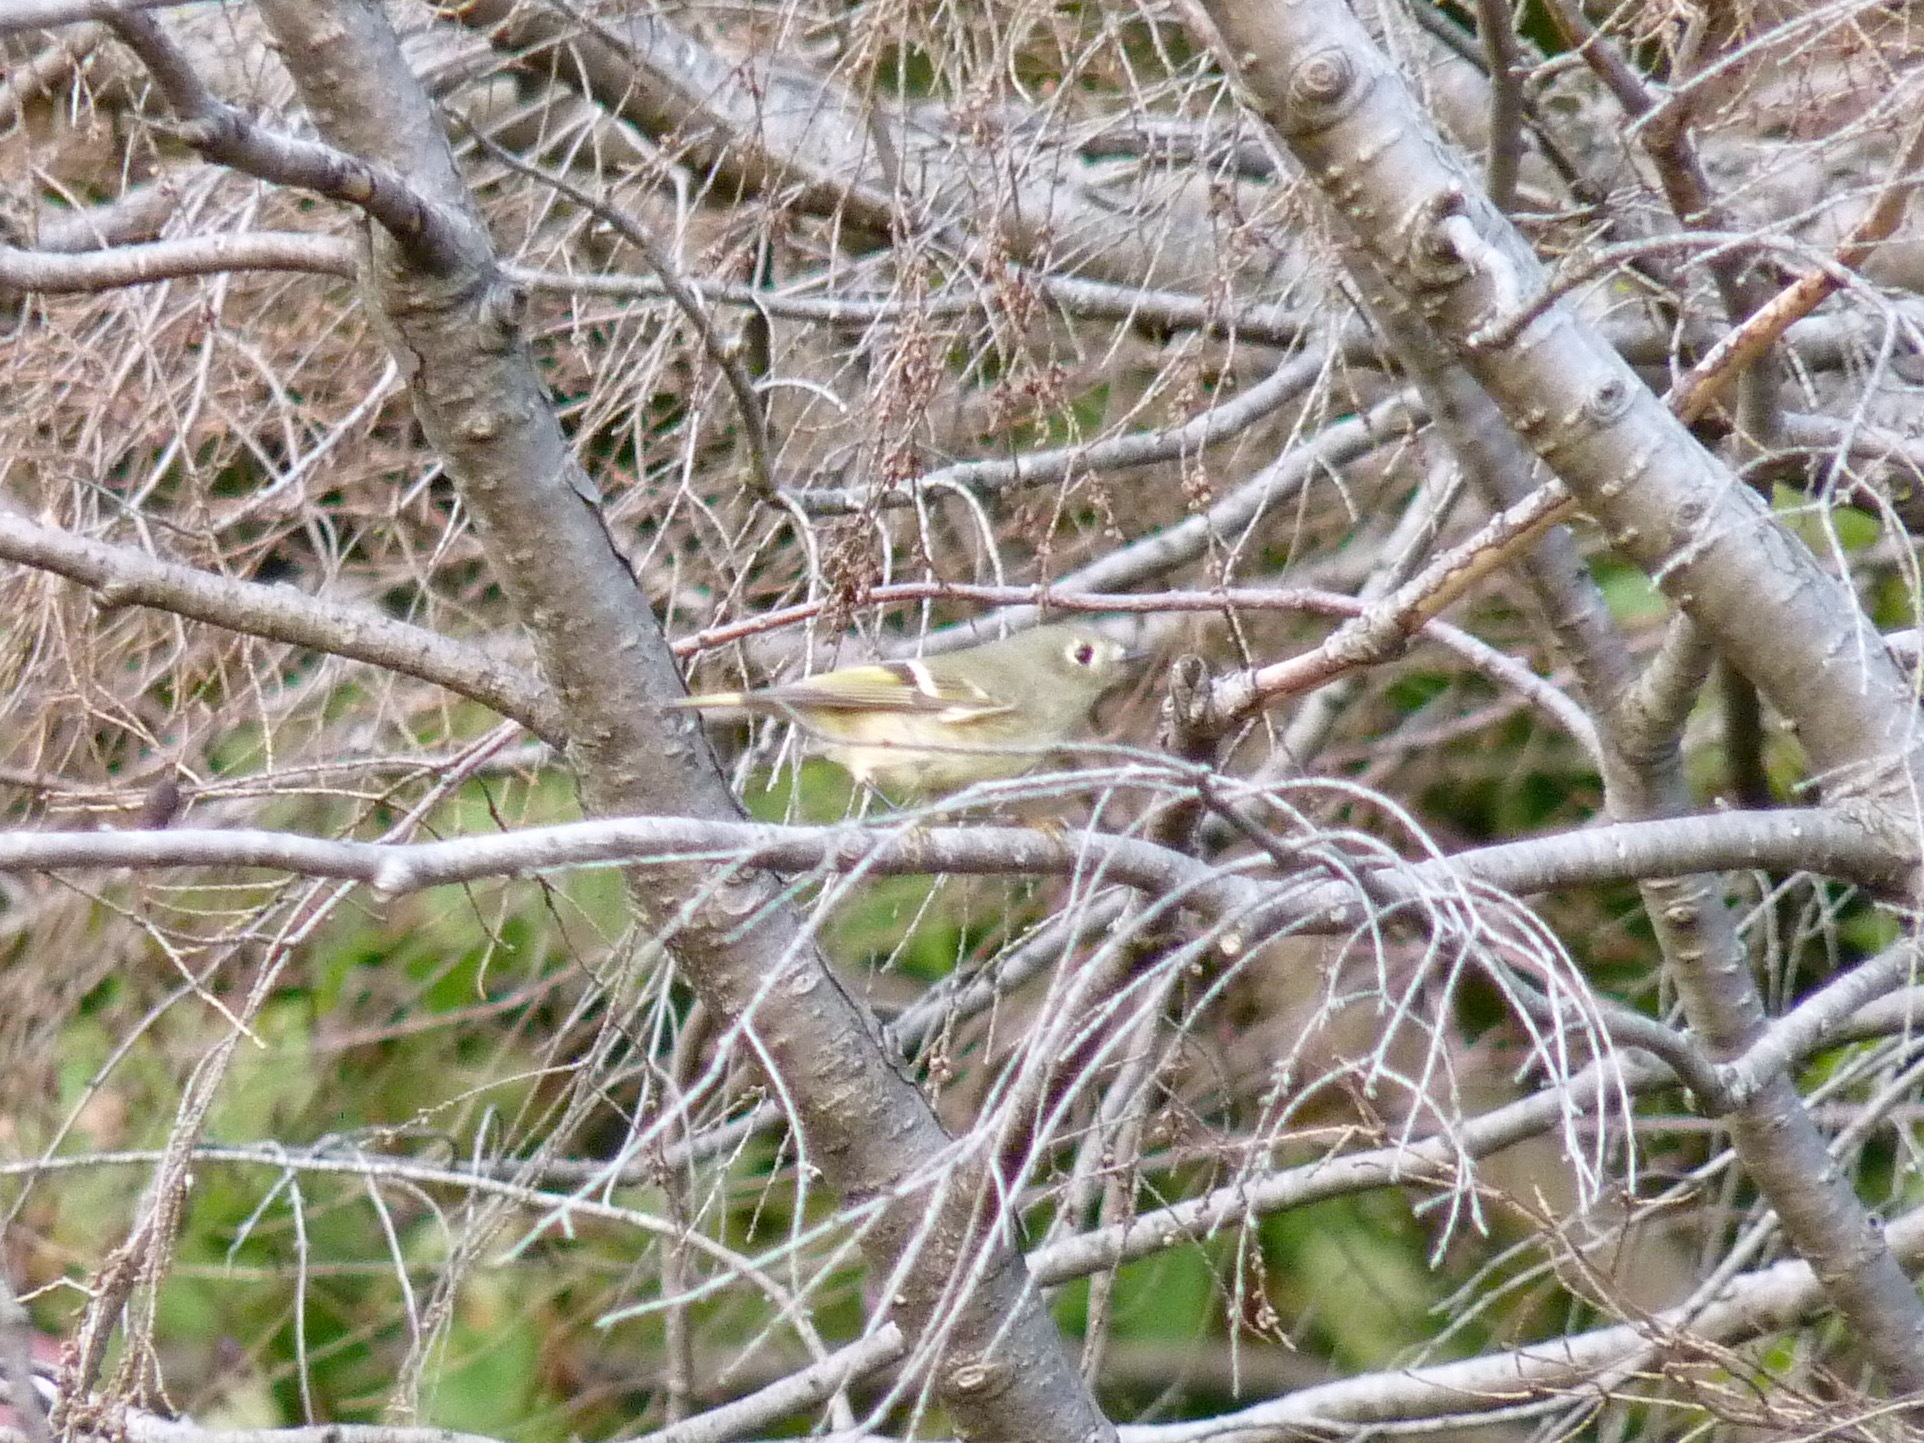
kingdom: Animalia
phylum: Chordata
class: Aves
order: Passeriformes
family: Regulidae
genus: Regulus
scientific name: Regulus calendula
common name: Ruby-crowned kinglet
